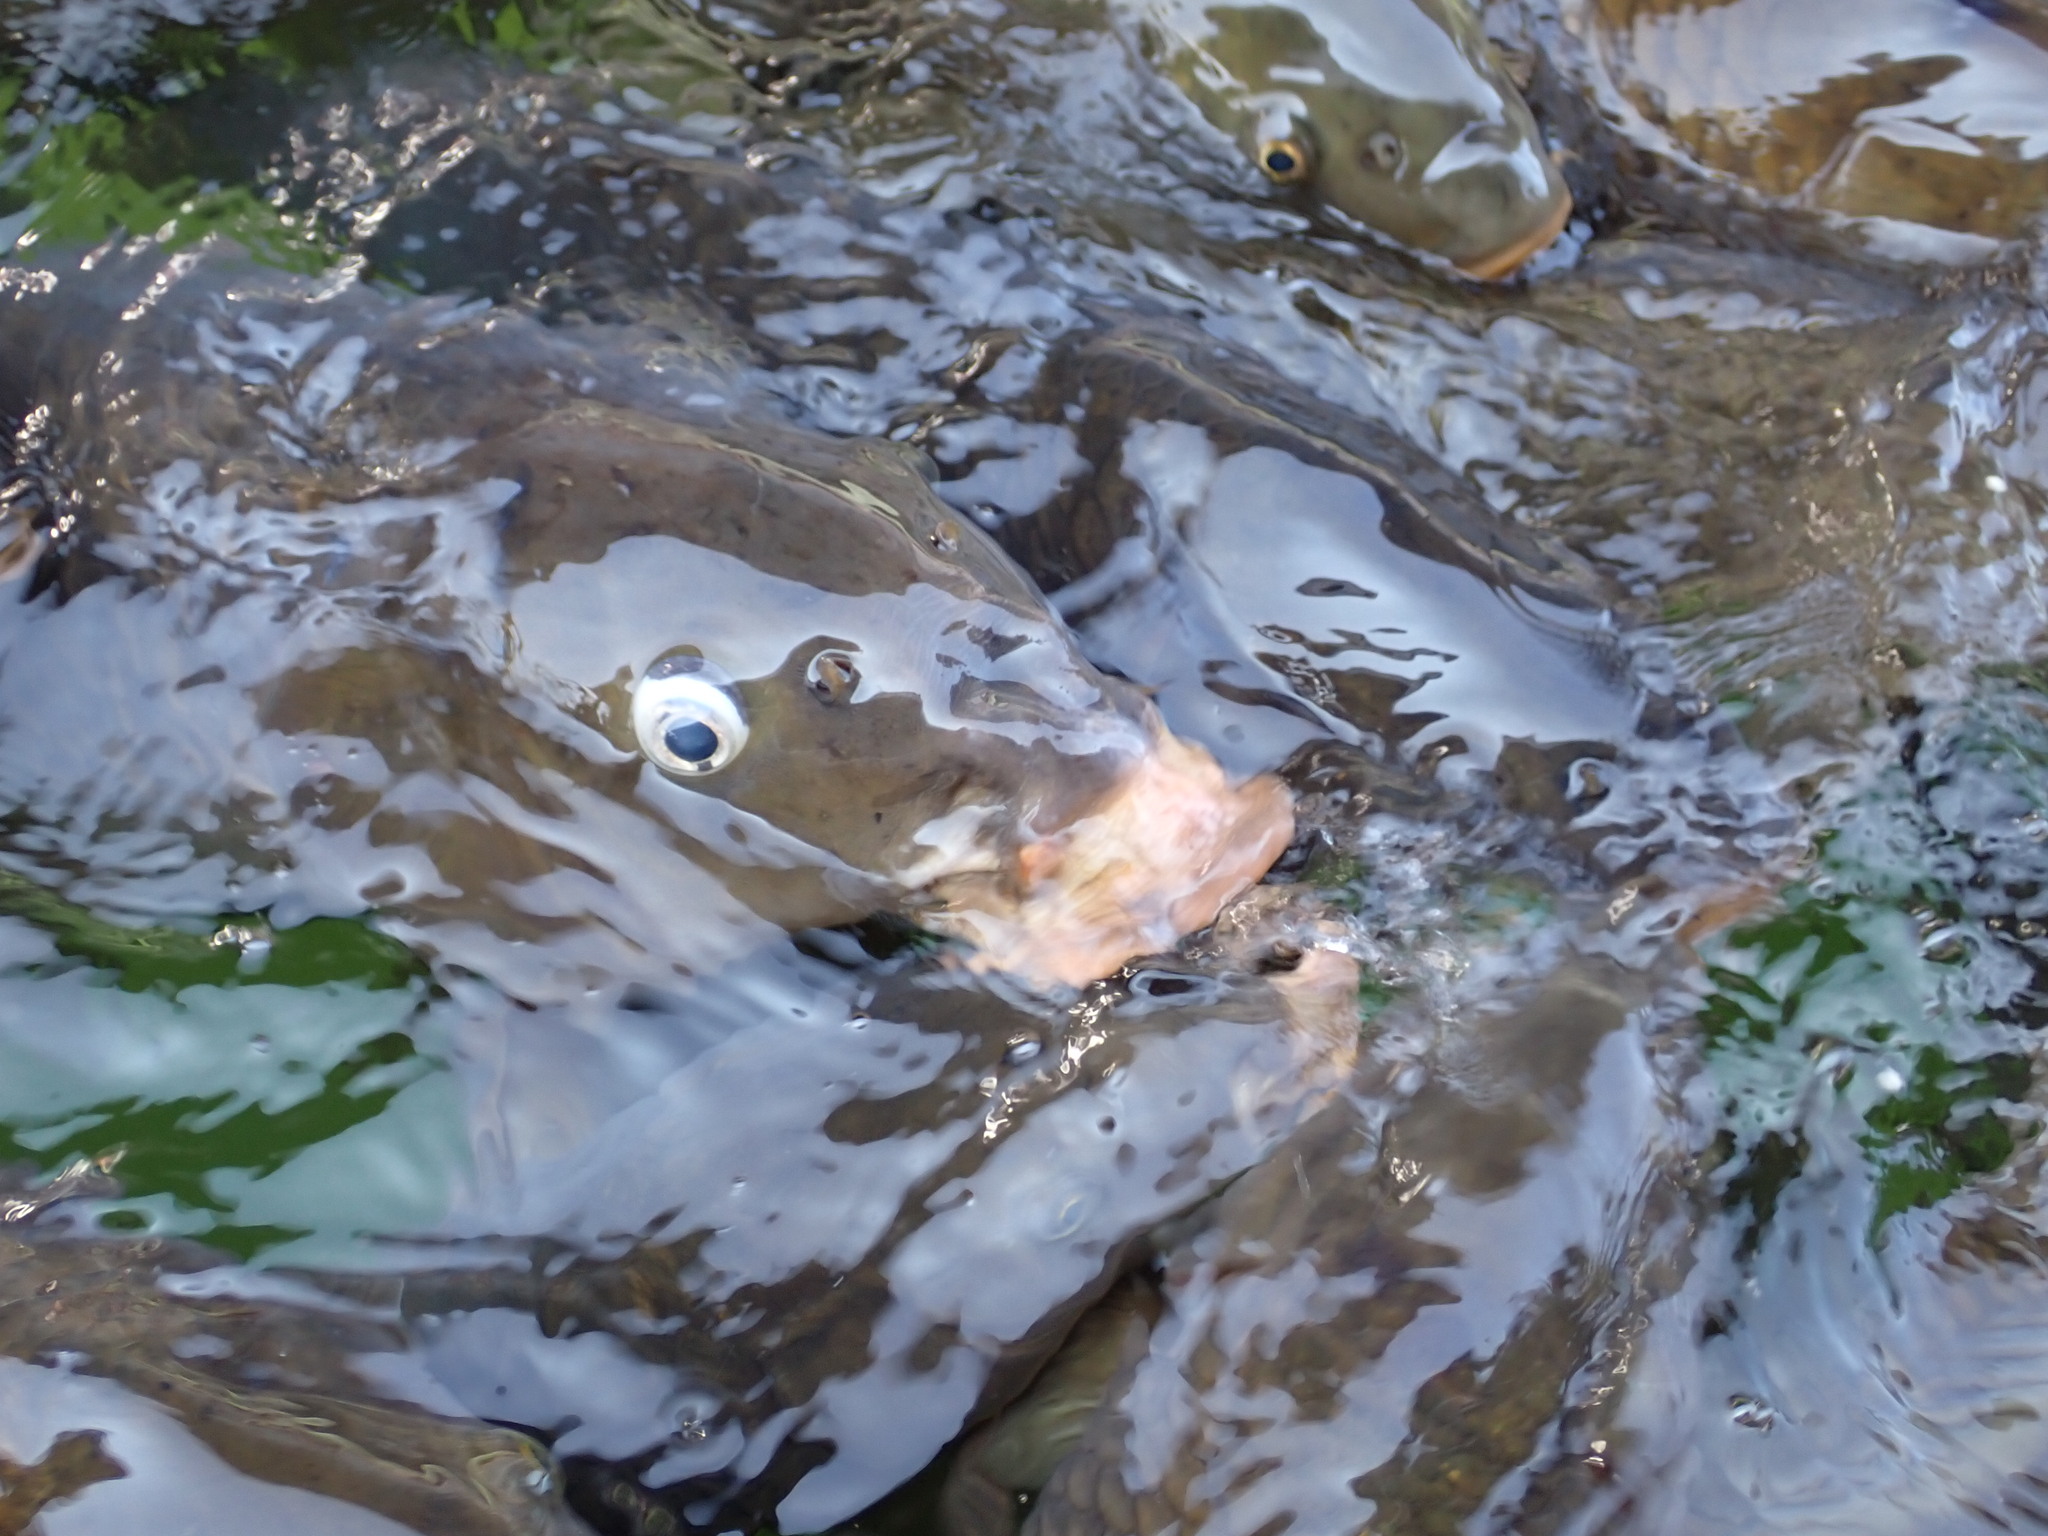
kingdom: Animalia
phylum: Chordata
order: Cypriniformes
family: Cyprinidae
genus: Cyprinus
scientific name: Cyprinus carpio
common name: Common carp
